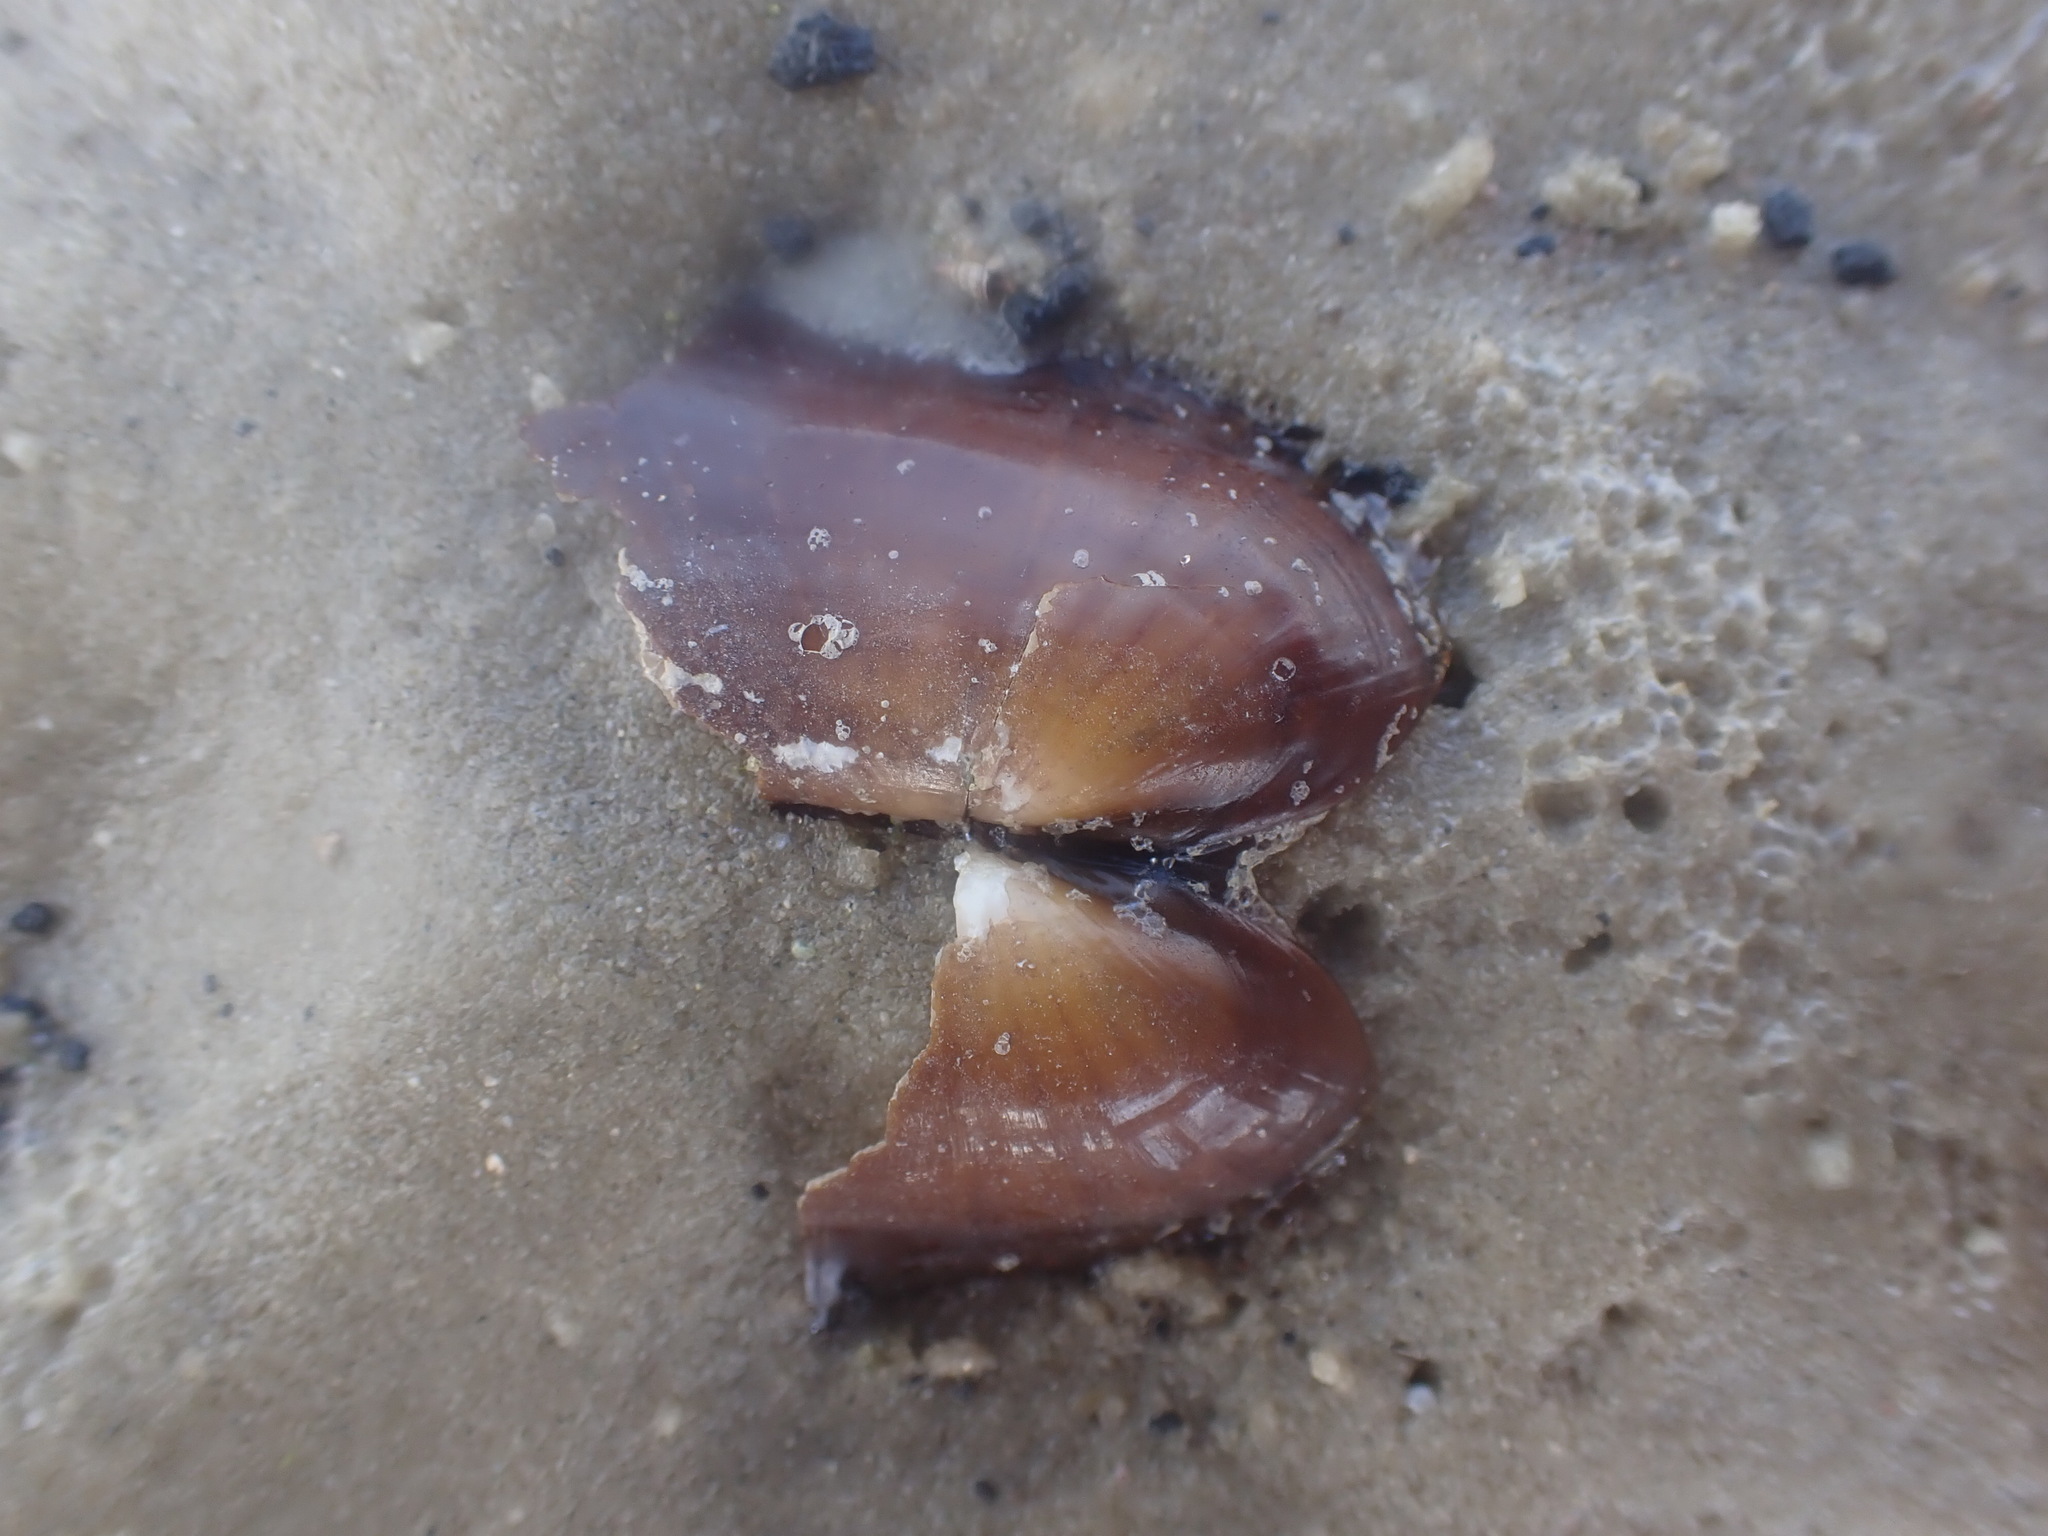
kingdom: Animalia
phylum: Mollusca
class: Bivalvia
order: Solemyida
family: Solemyidae
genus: Solemya
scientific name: Solemya parkinsonii
